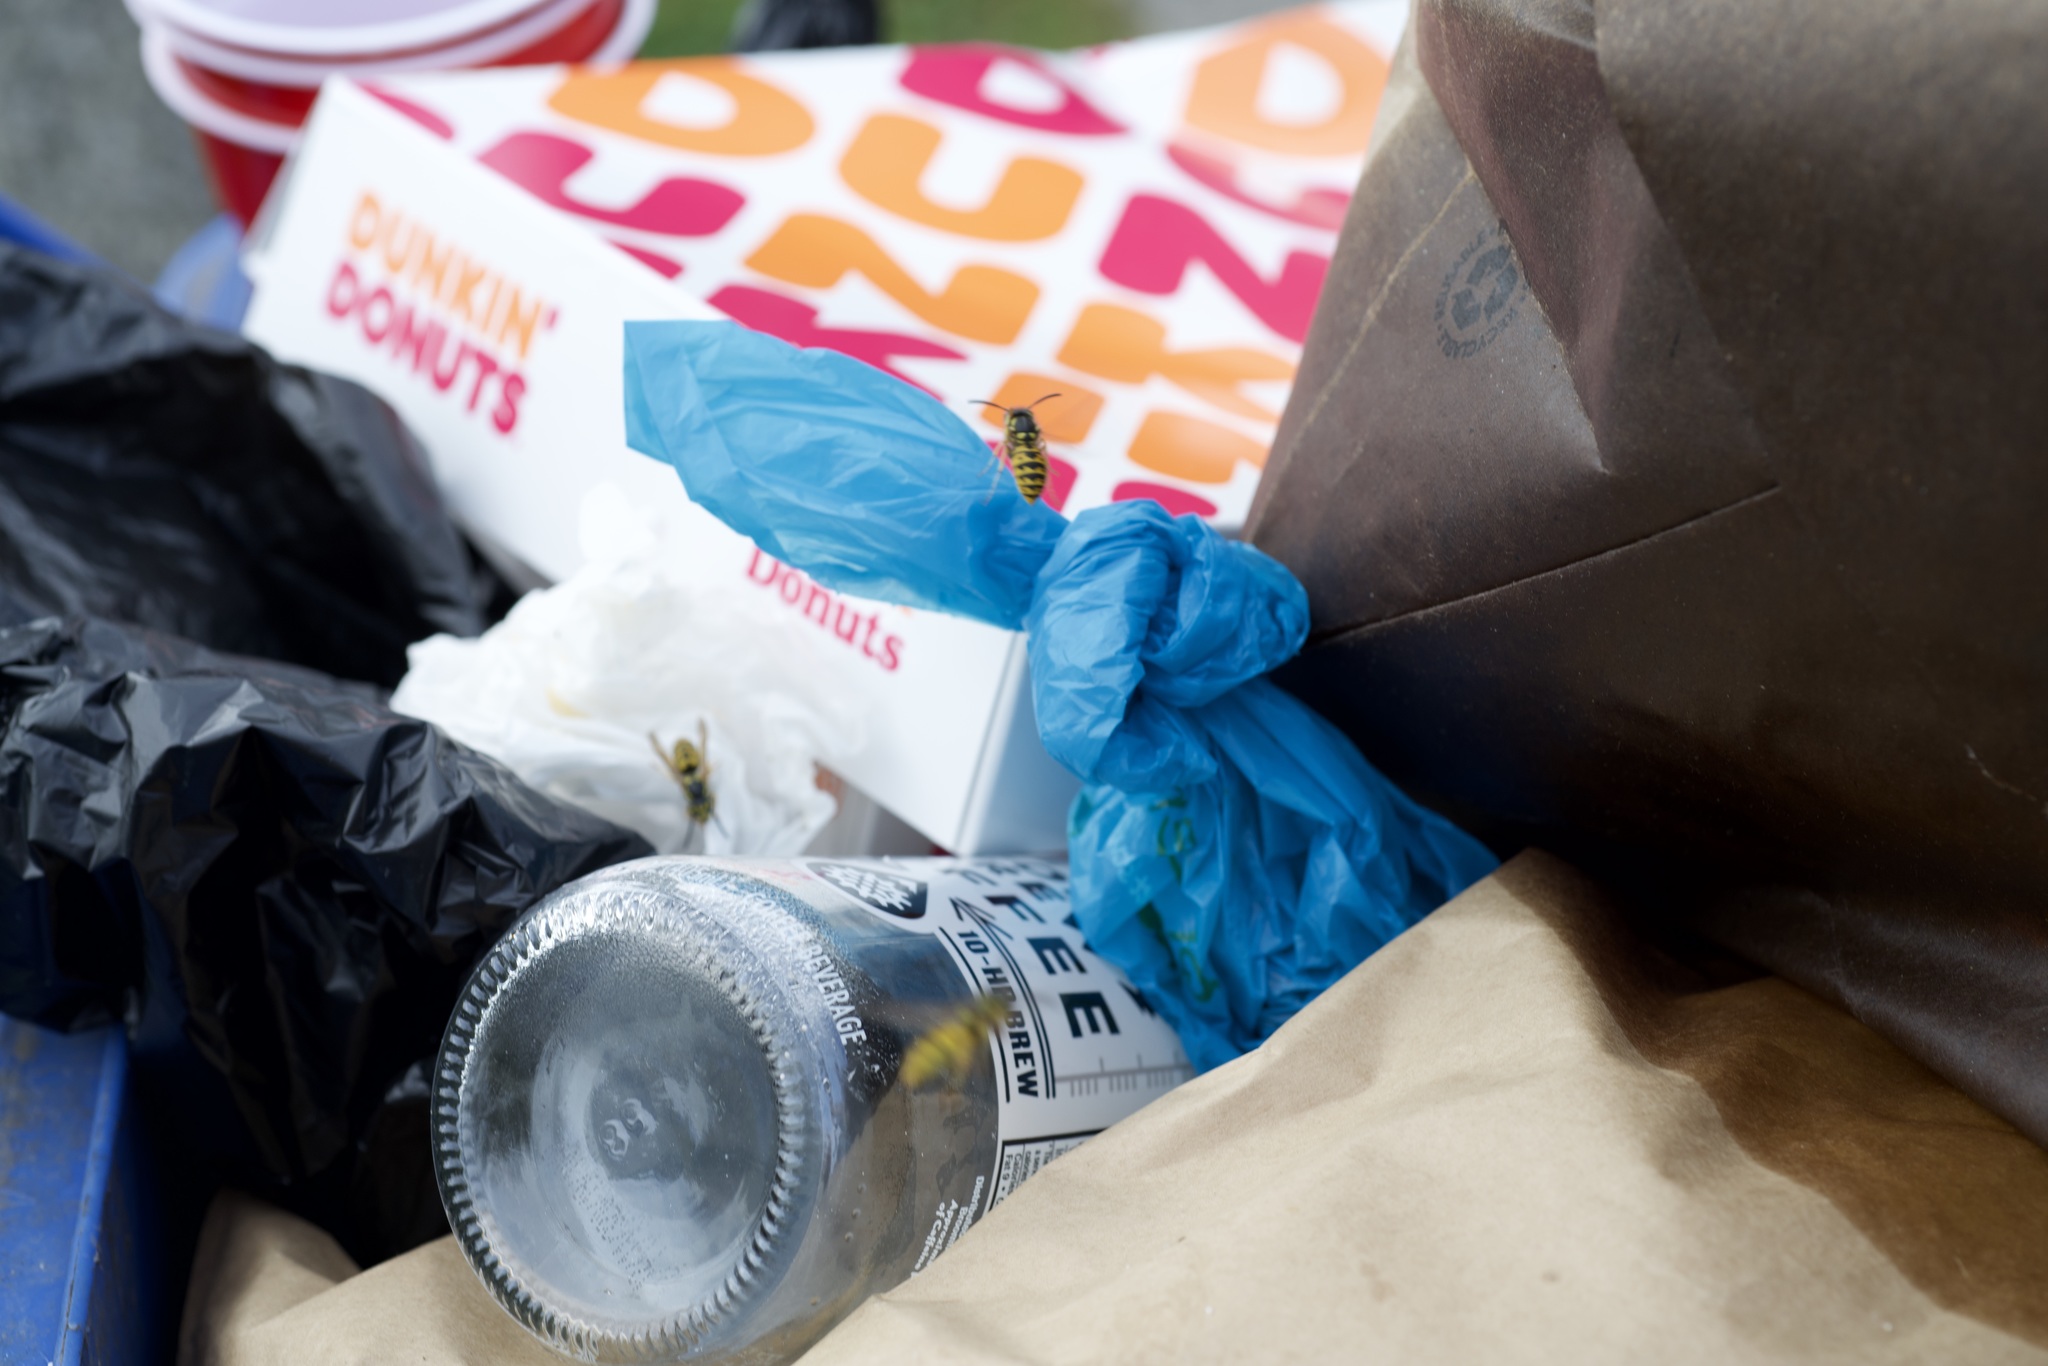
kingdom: Animalia
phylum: Arthropoda
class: Insecta
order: Hymenoptera
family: Vespidae
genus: Vespula
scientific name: Vespula germanica
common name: German wasp
